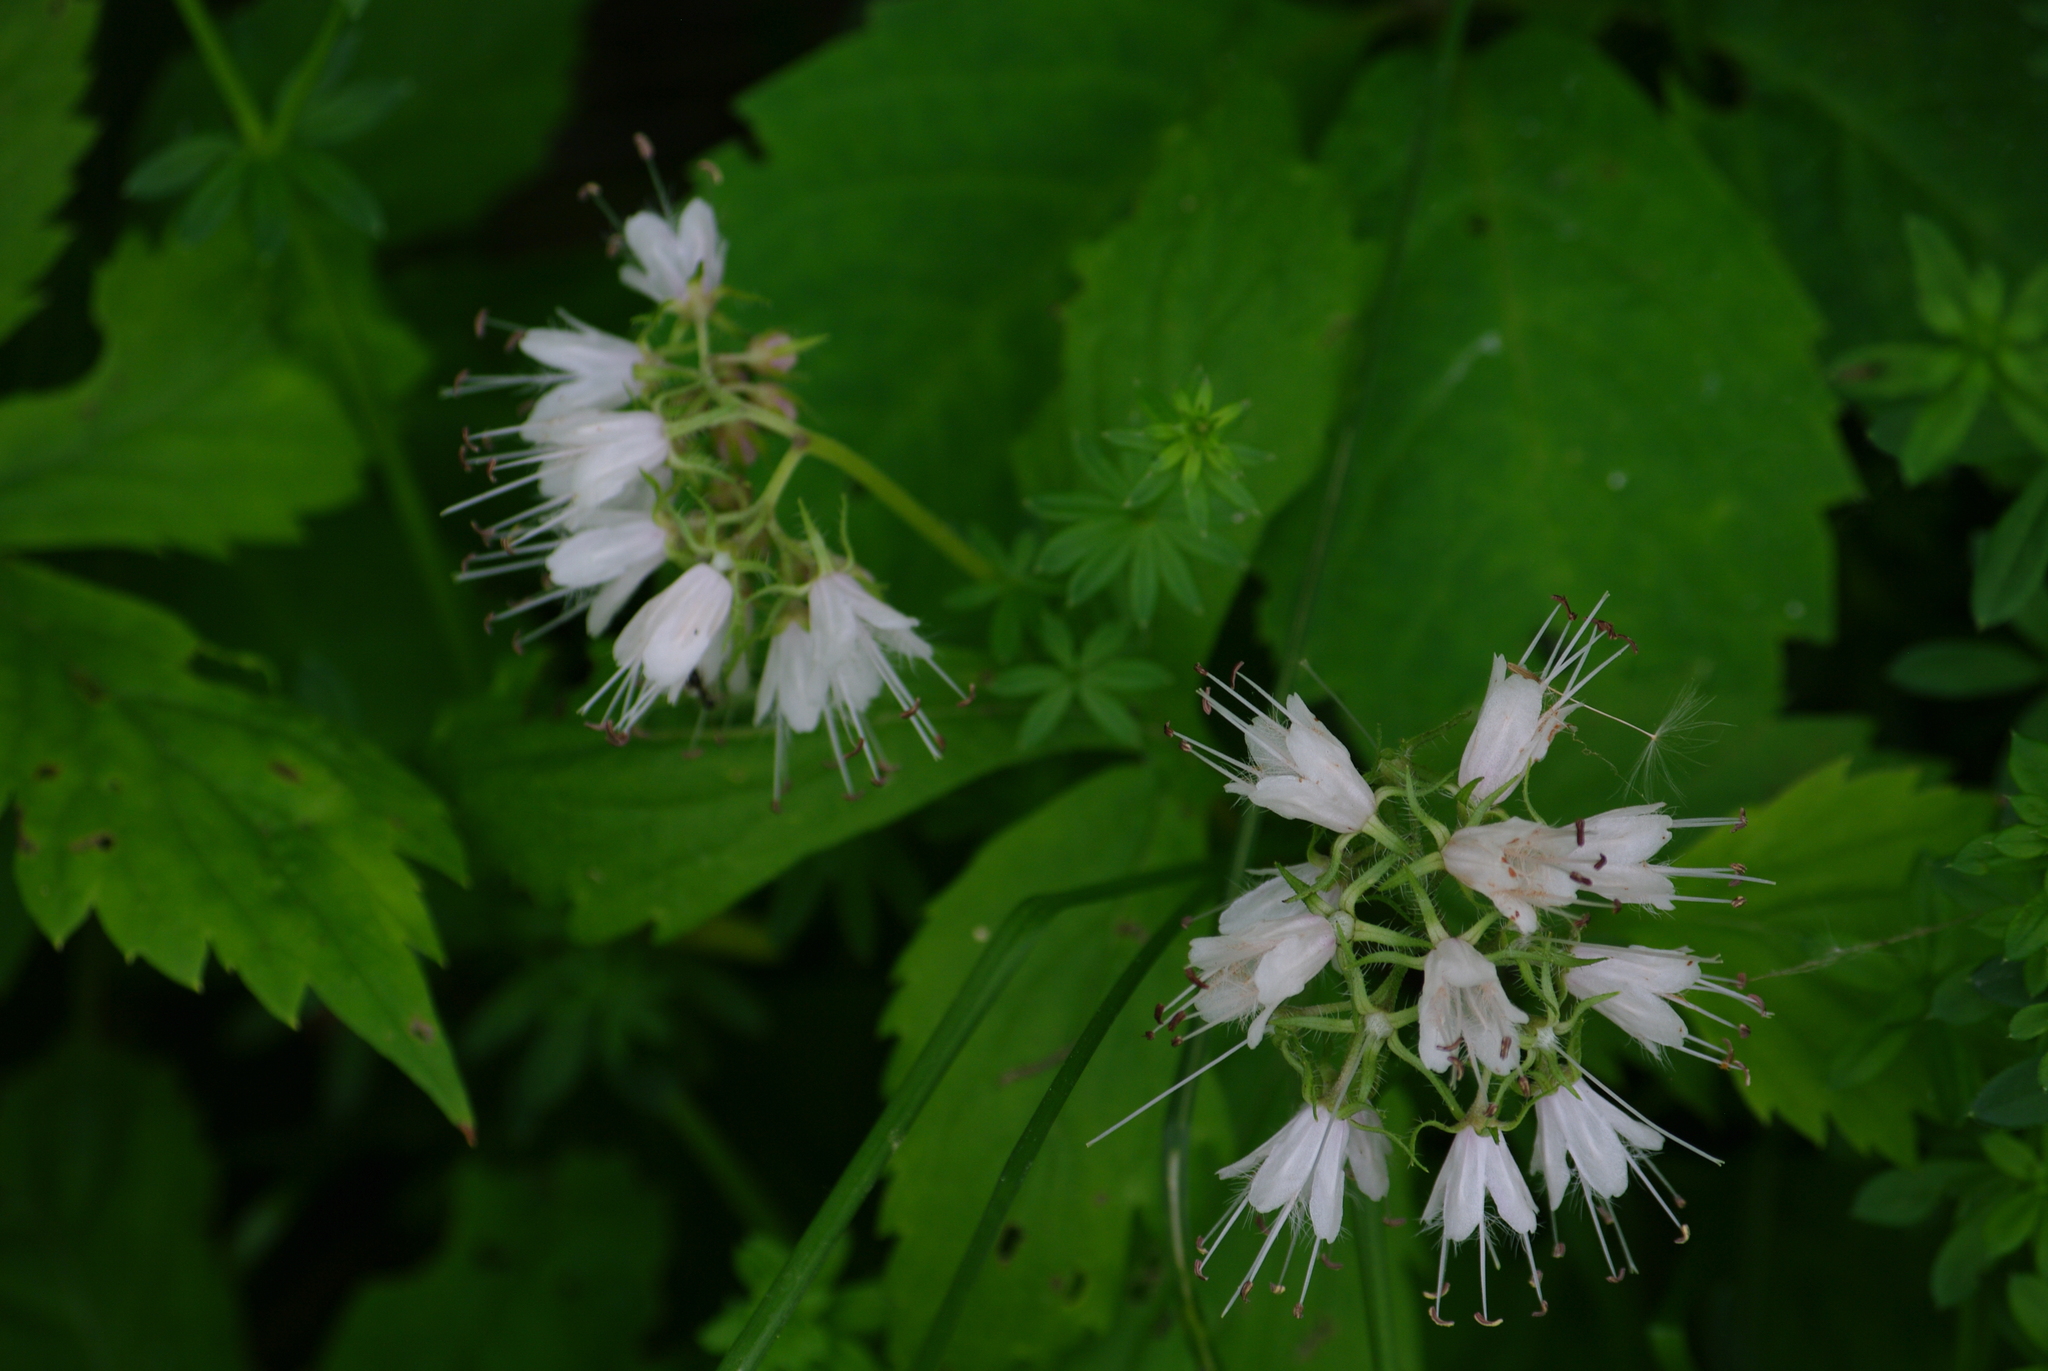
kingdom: Plantae
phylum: Tracheophyta
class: Magnoliopsida
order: Boraginales
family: Hydrophyllaceae
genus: Hydrophyllum
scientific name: Hydrophyllum virginianum
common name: Virginia waterleaf
